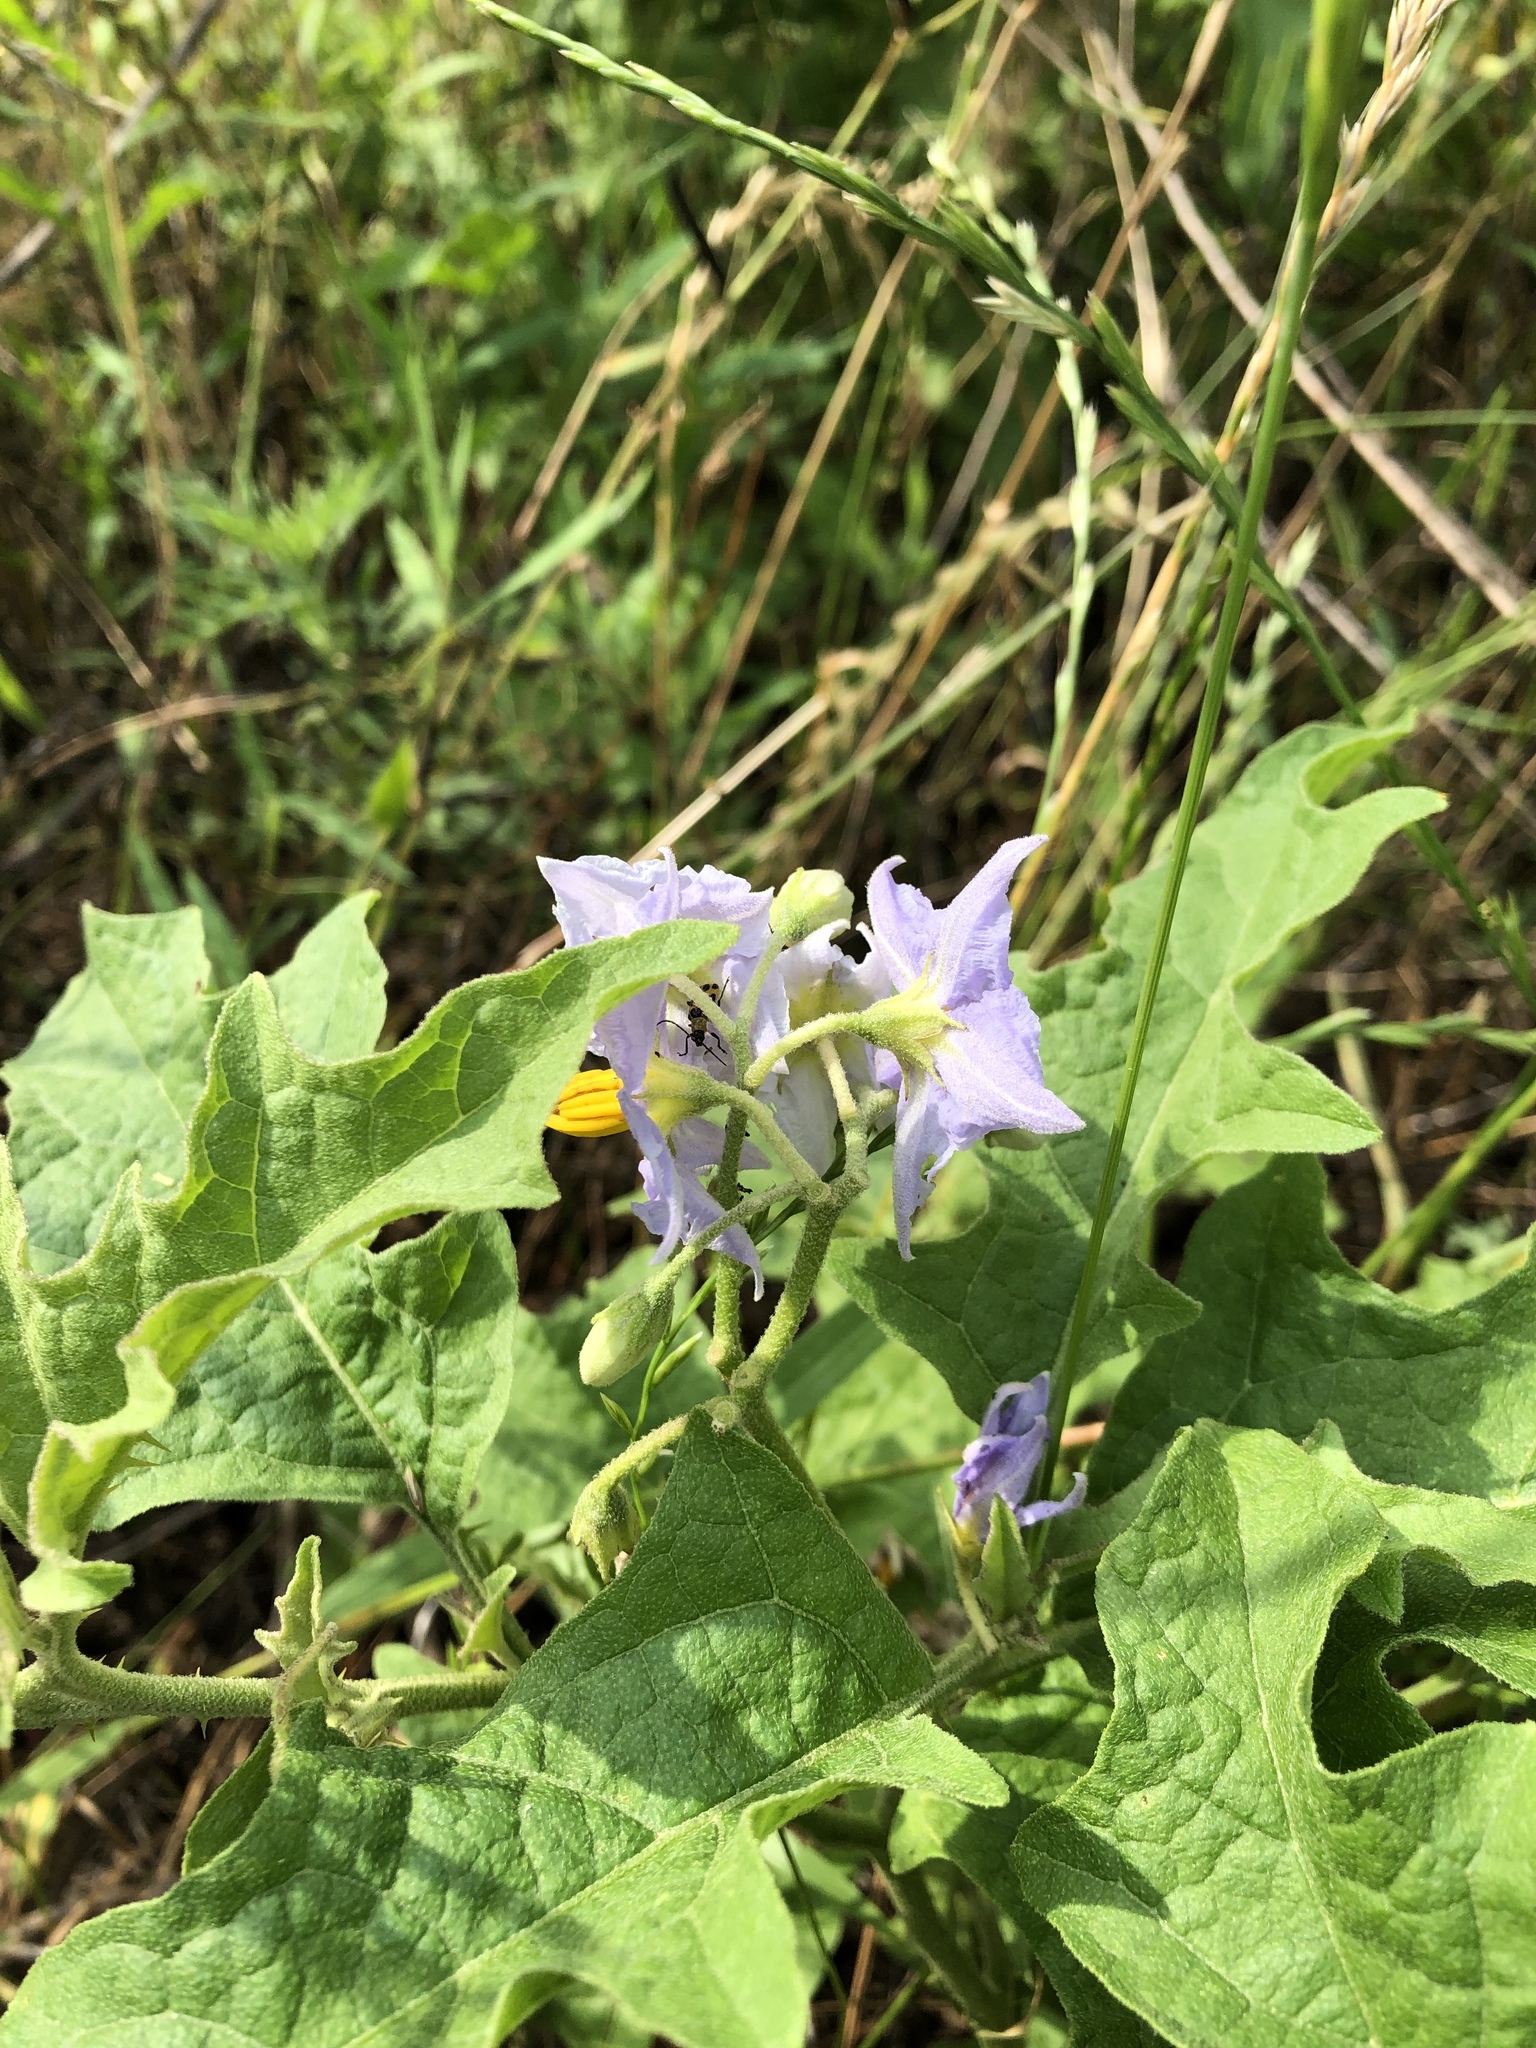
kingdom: Plantae
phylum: Tracheophyta
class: Magnoliopsida
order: Solanales
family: Solanaceae
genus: Solanum
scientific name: Solanum dimidiatum
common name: Carolina horse-nettle
